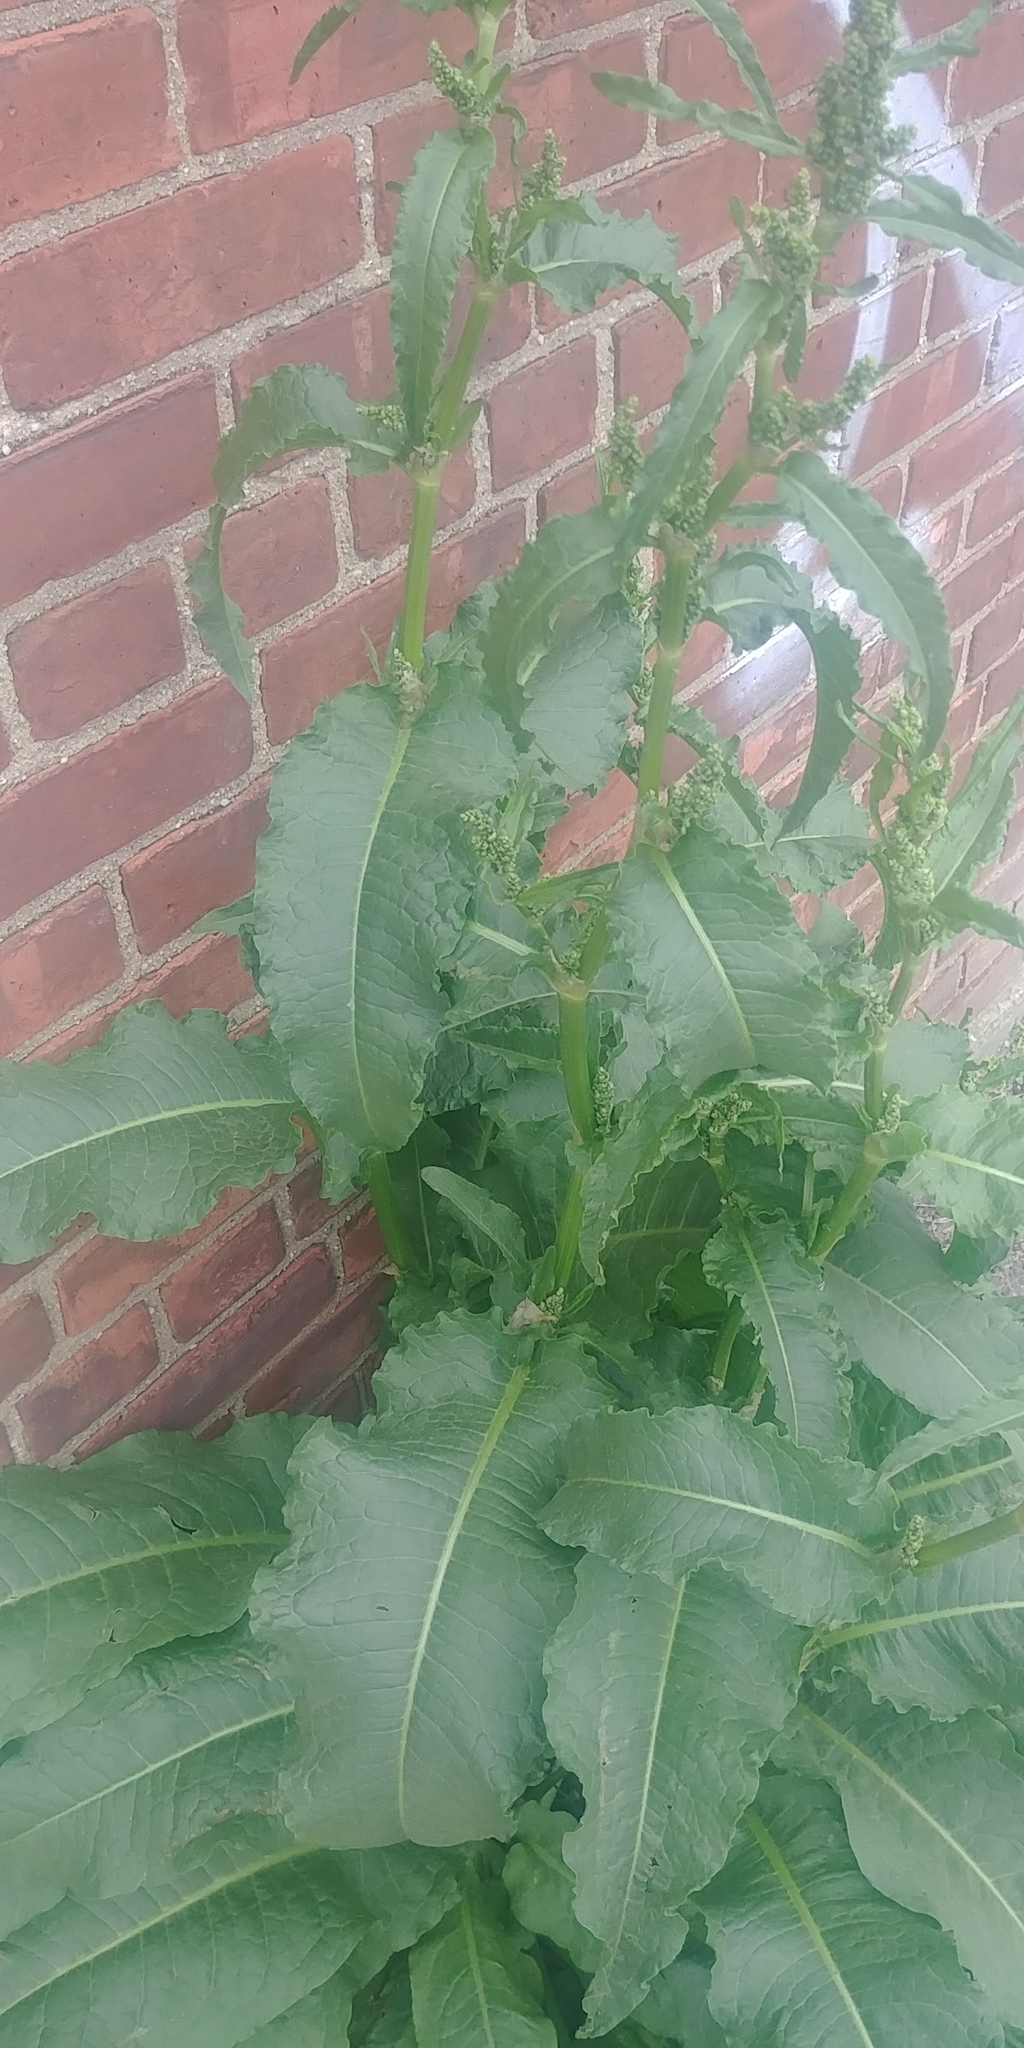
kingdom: Plantae
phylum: Tracheophyta
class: Magnoliopsida
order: Caryophyllales
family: Polygonaceae
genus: Rumex
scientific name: Rumex crispus
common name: Curled dock
